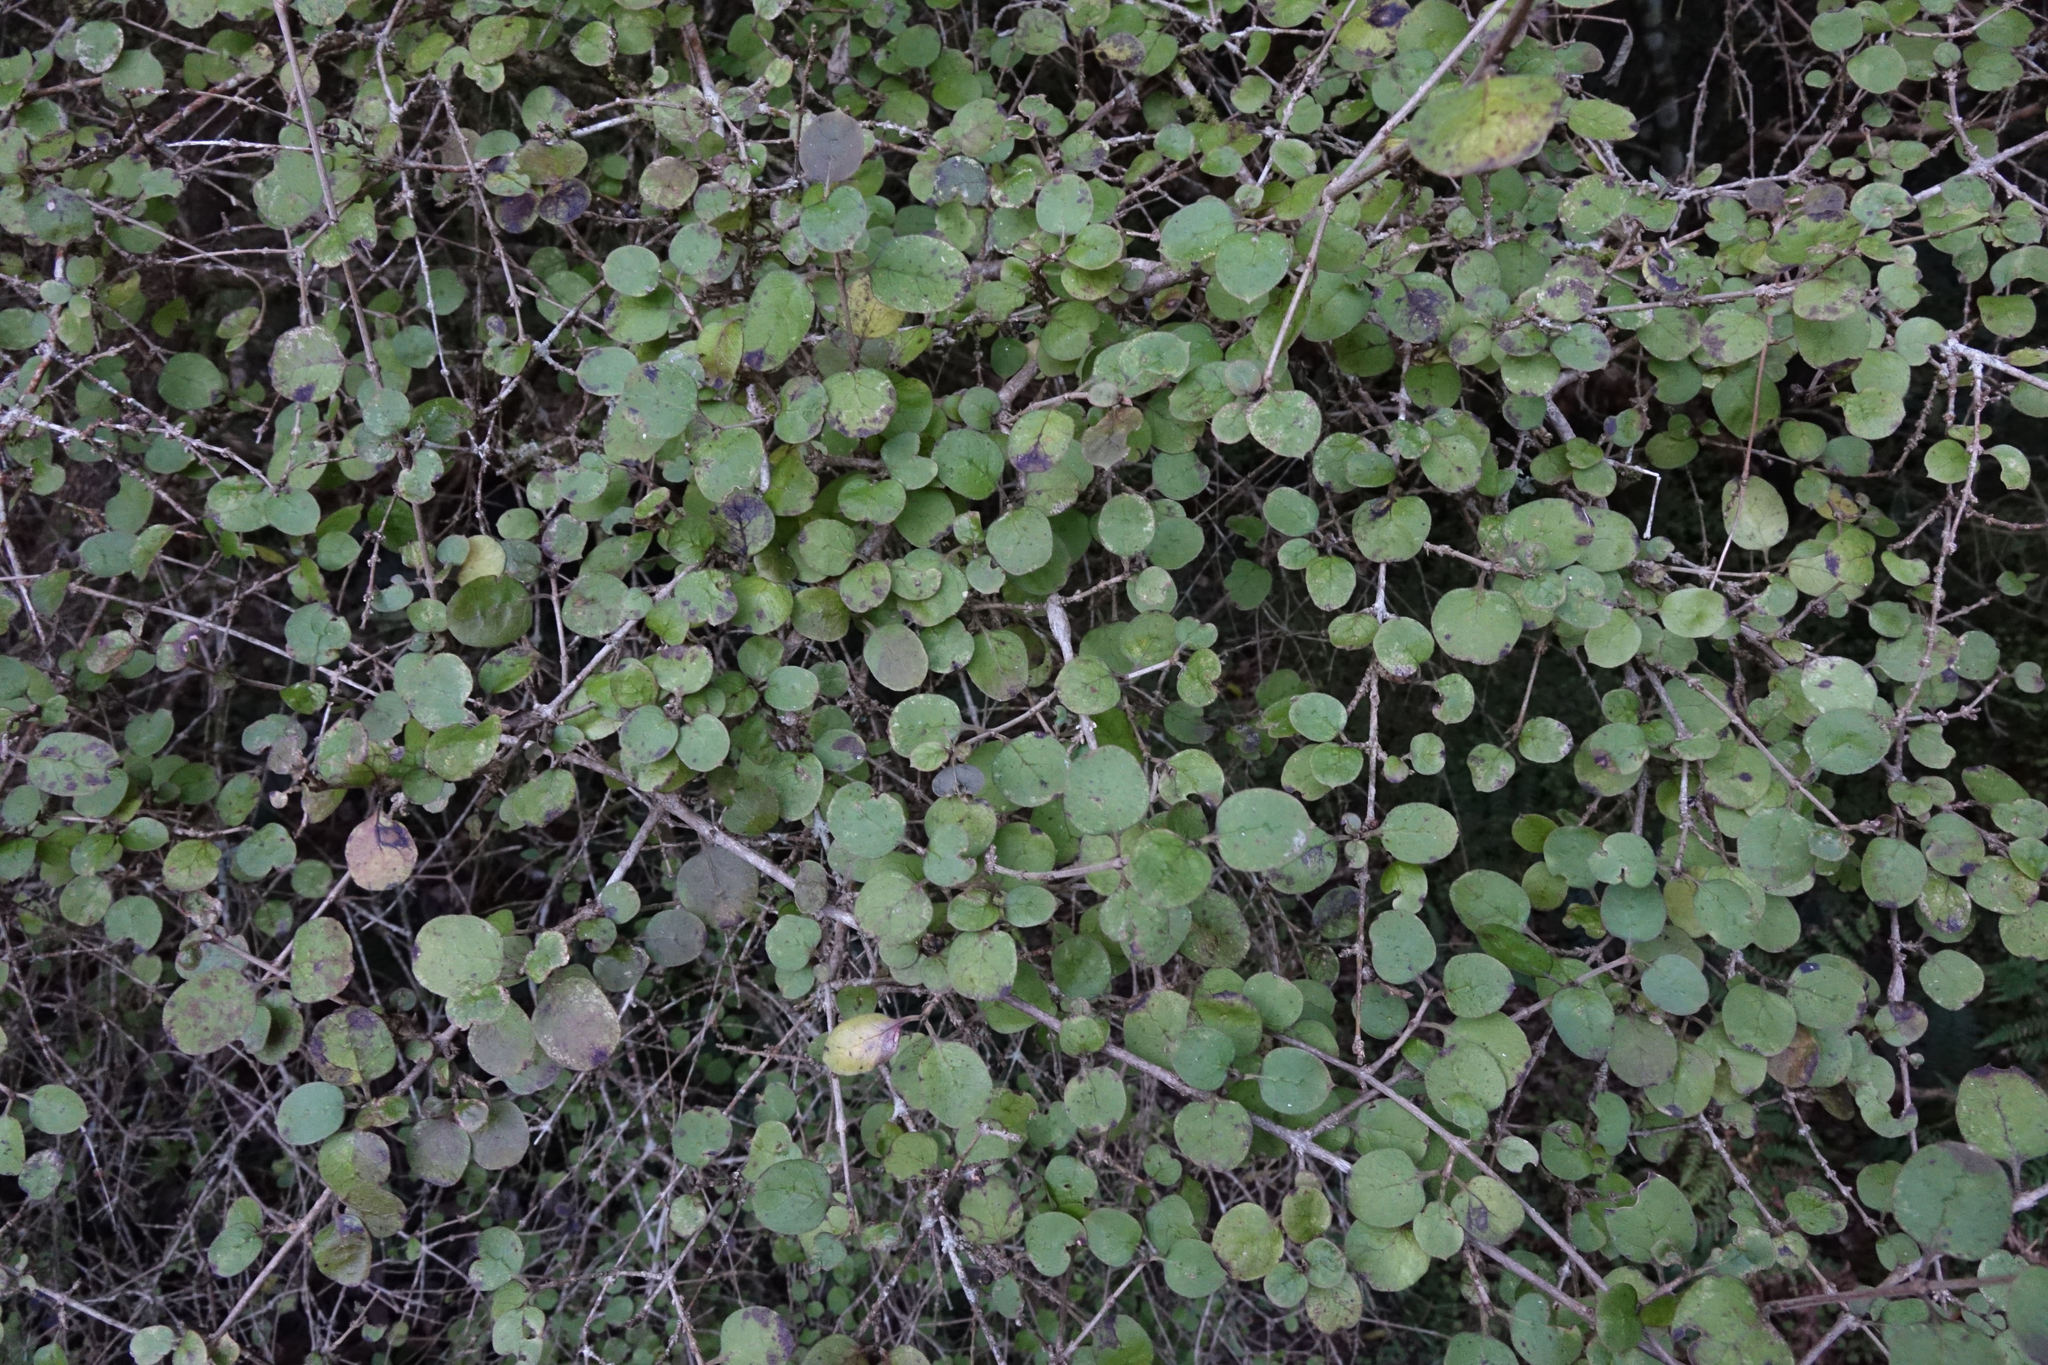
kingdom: Plantae
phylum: Tracheophyta
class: Magnoliopsida
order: Gentianales
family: Rubiaceae
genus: Coprosma
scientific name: Coprosma rotundifolia
